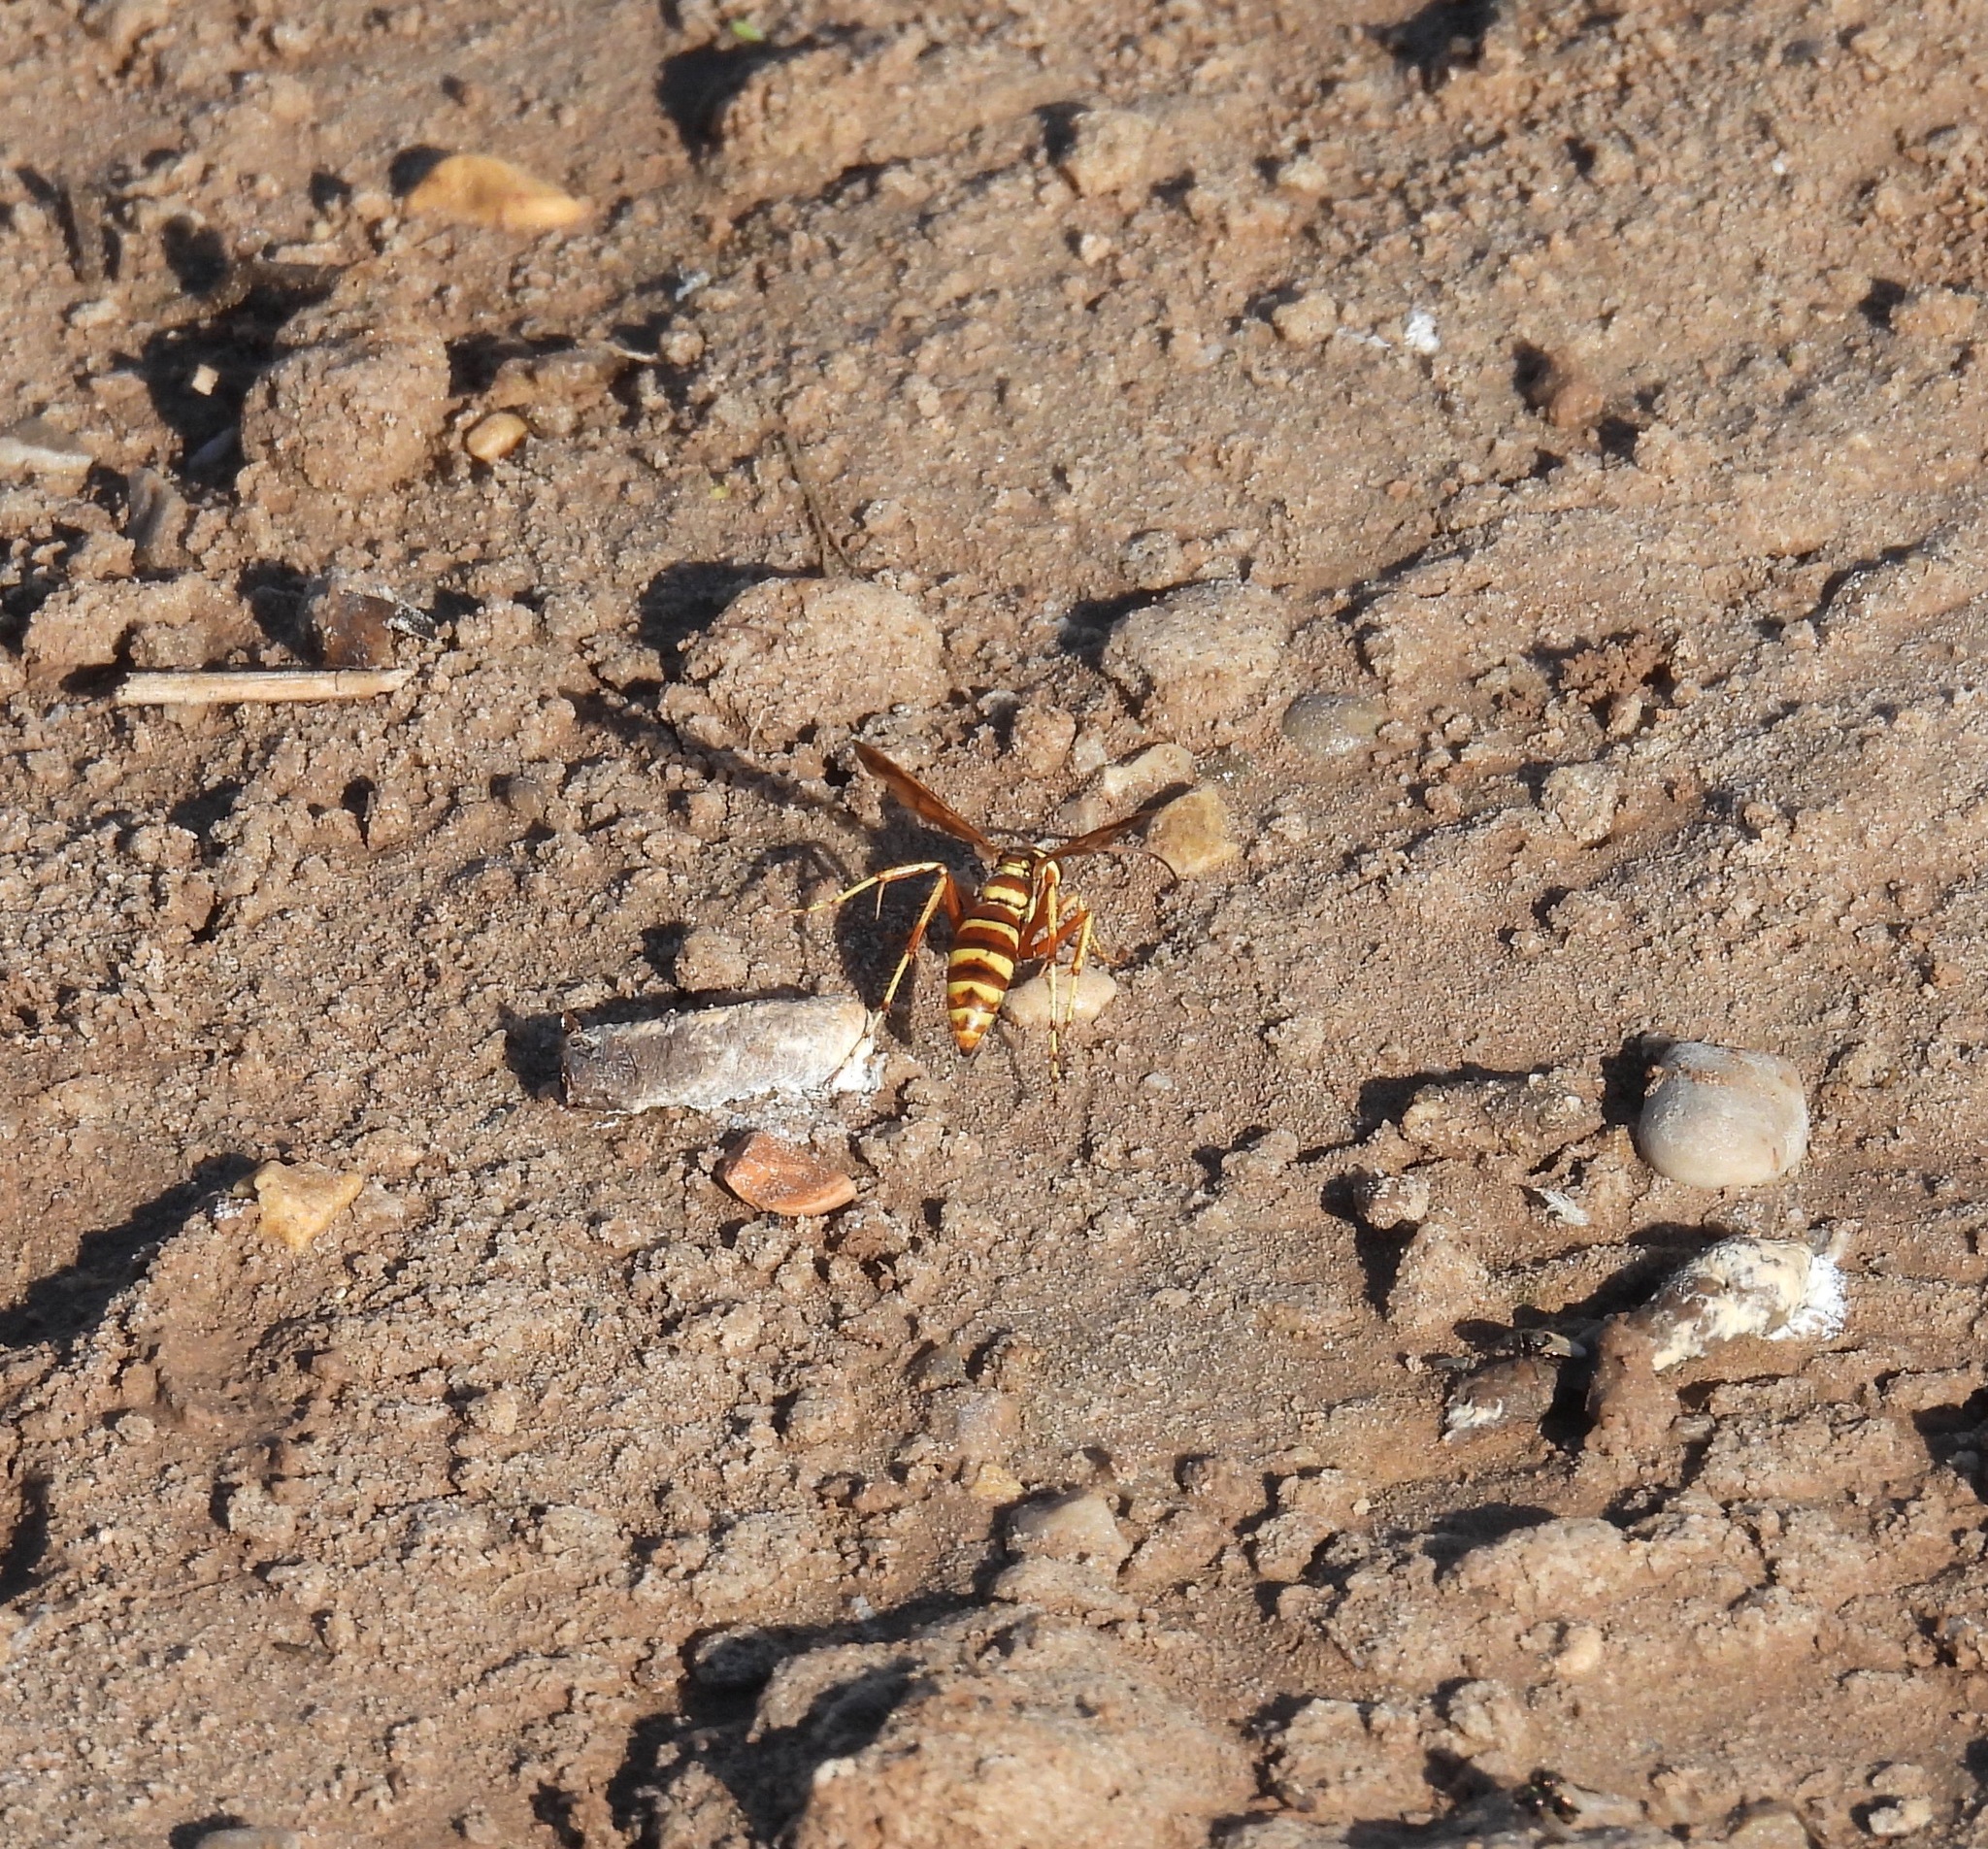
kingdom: Animalia
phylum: Arthropoda
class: Insecta
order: Hymenoptera
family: Pompilidae
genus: Poecilopompilus
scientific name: Poecilopompilus interruptus
